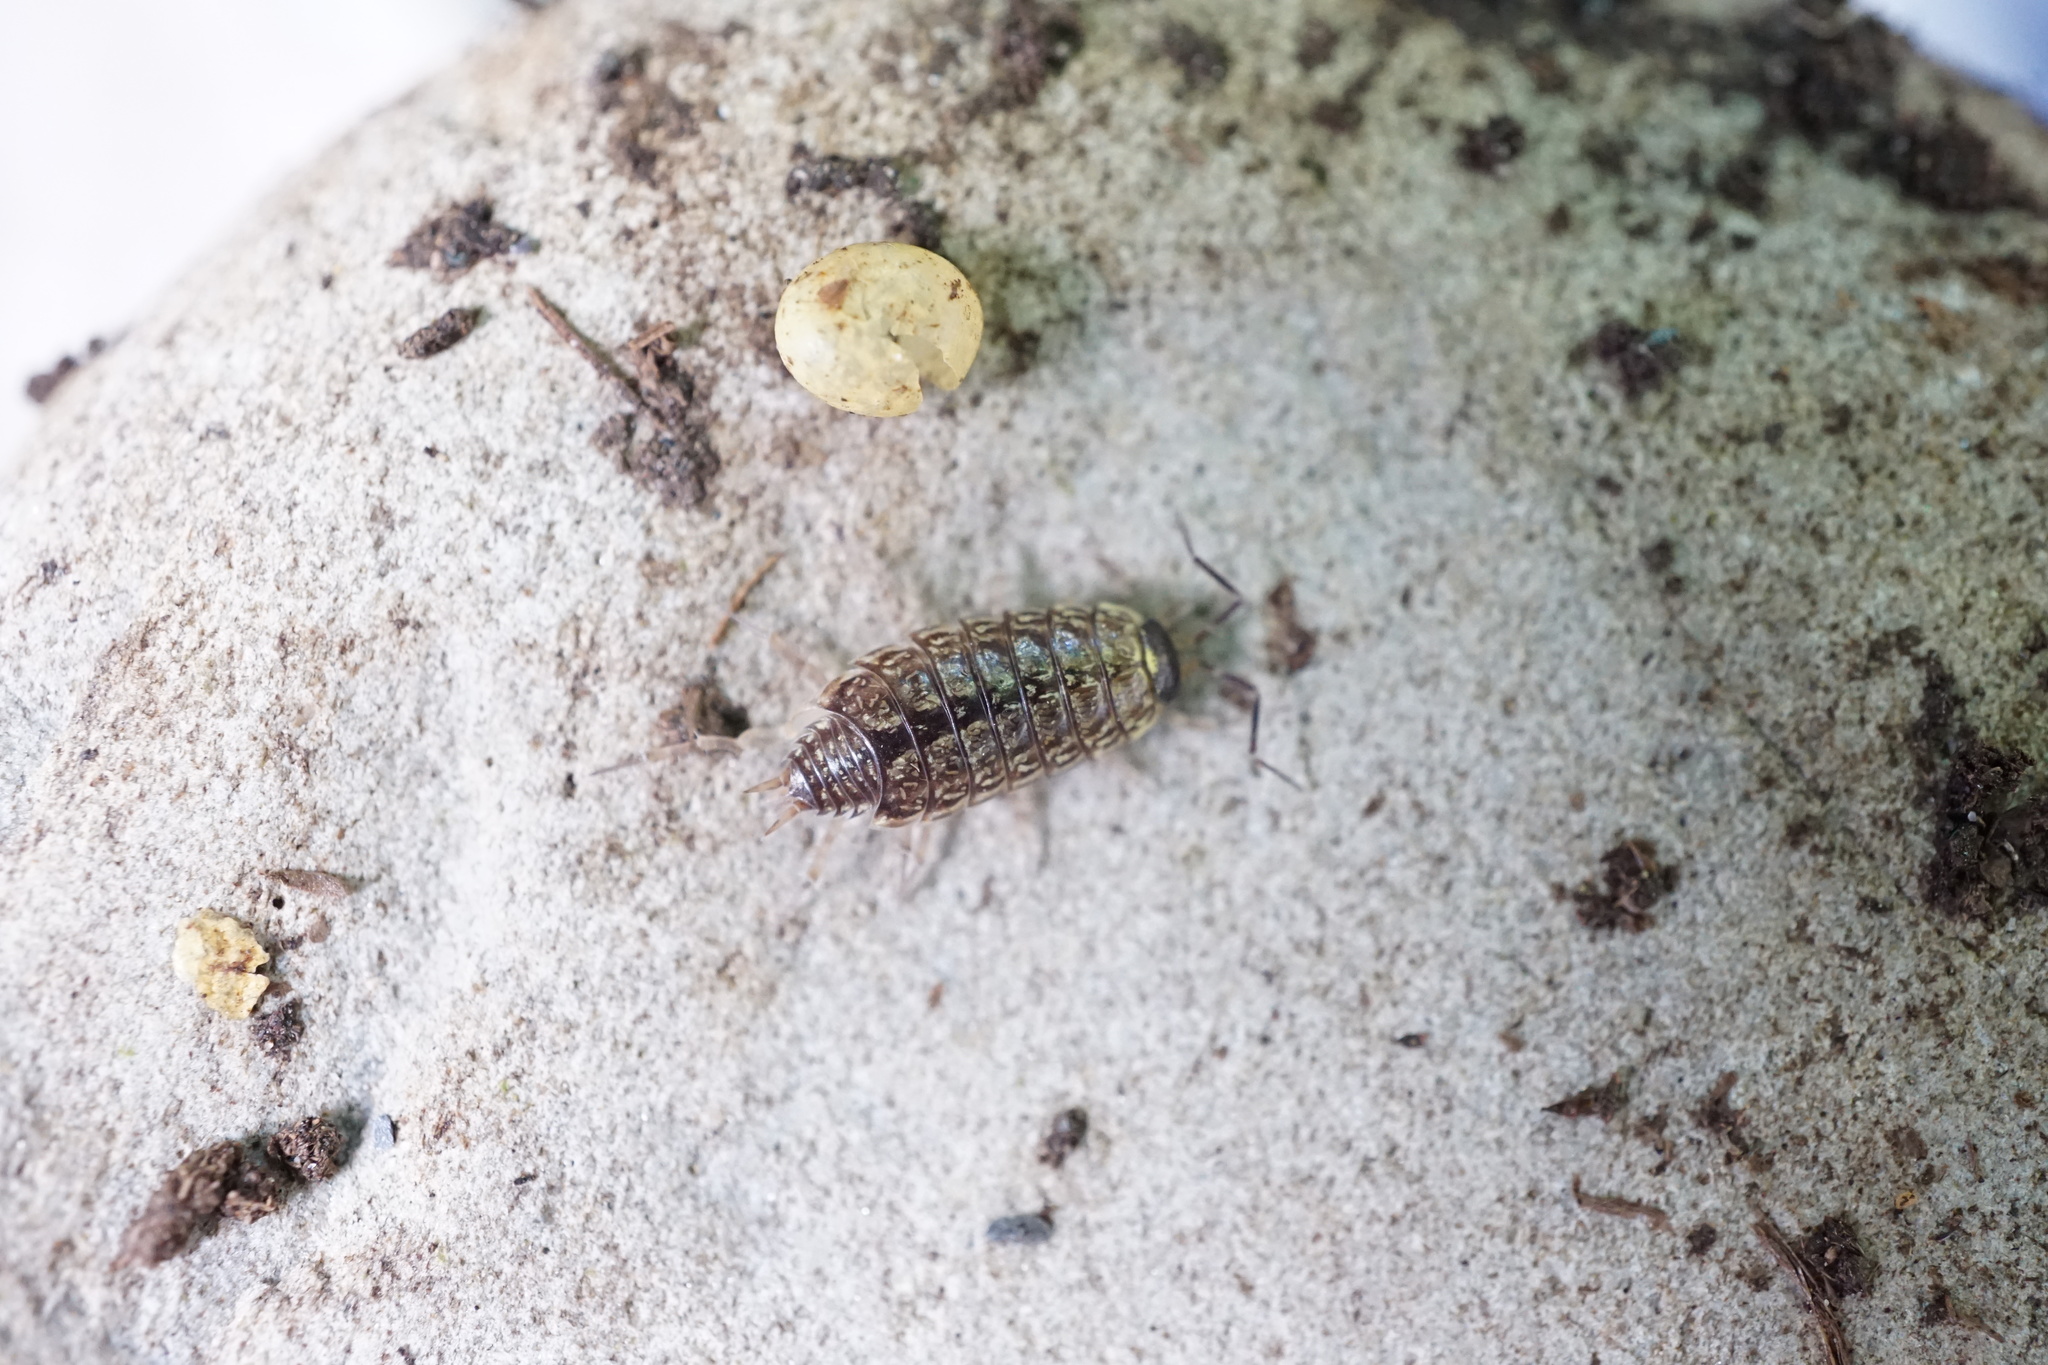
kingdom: Animalia
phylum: Arthropoda
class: Malacostraca
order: Isopoda
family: Philosciidae
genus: Philoscia
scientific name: Philoscia muscorum
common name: Common striped woodlouse
